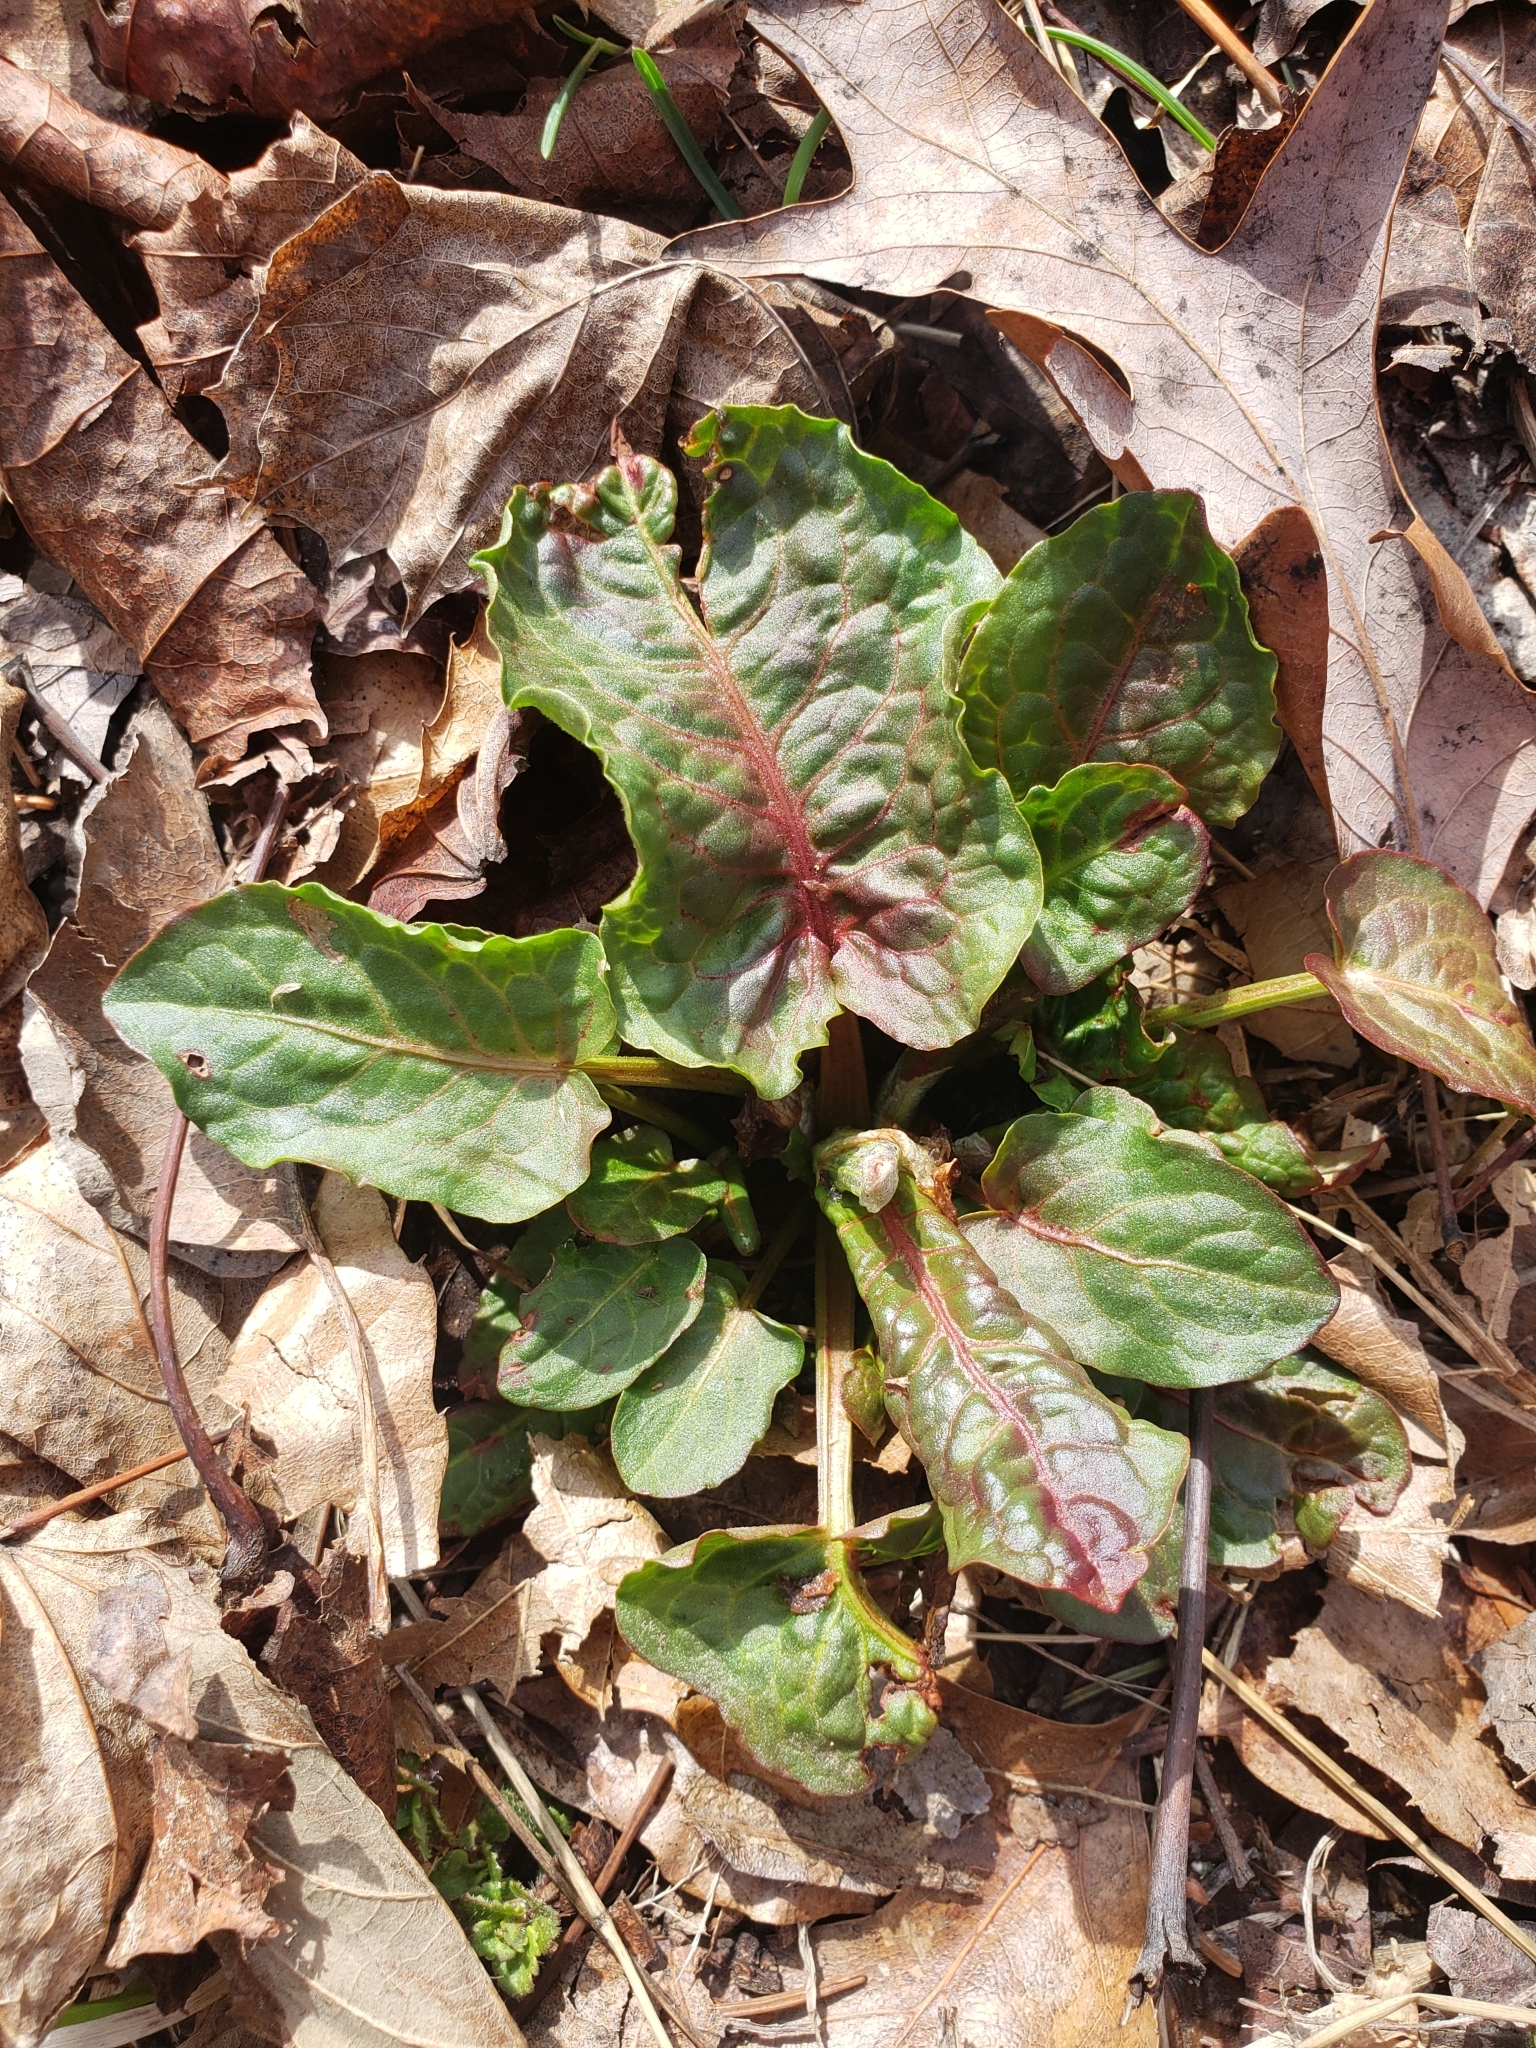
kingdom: Plantae
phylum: Tracheophyta
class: Magnoliopsida
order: Caryophyllales
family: Polygonaceae
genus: Rumex
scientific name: Rumex obtusifolius
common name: Bitter dock
